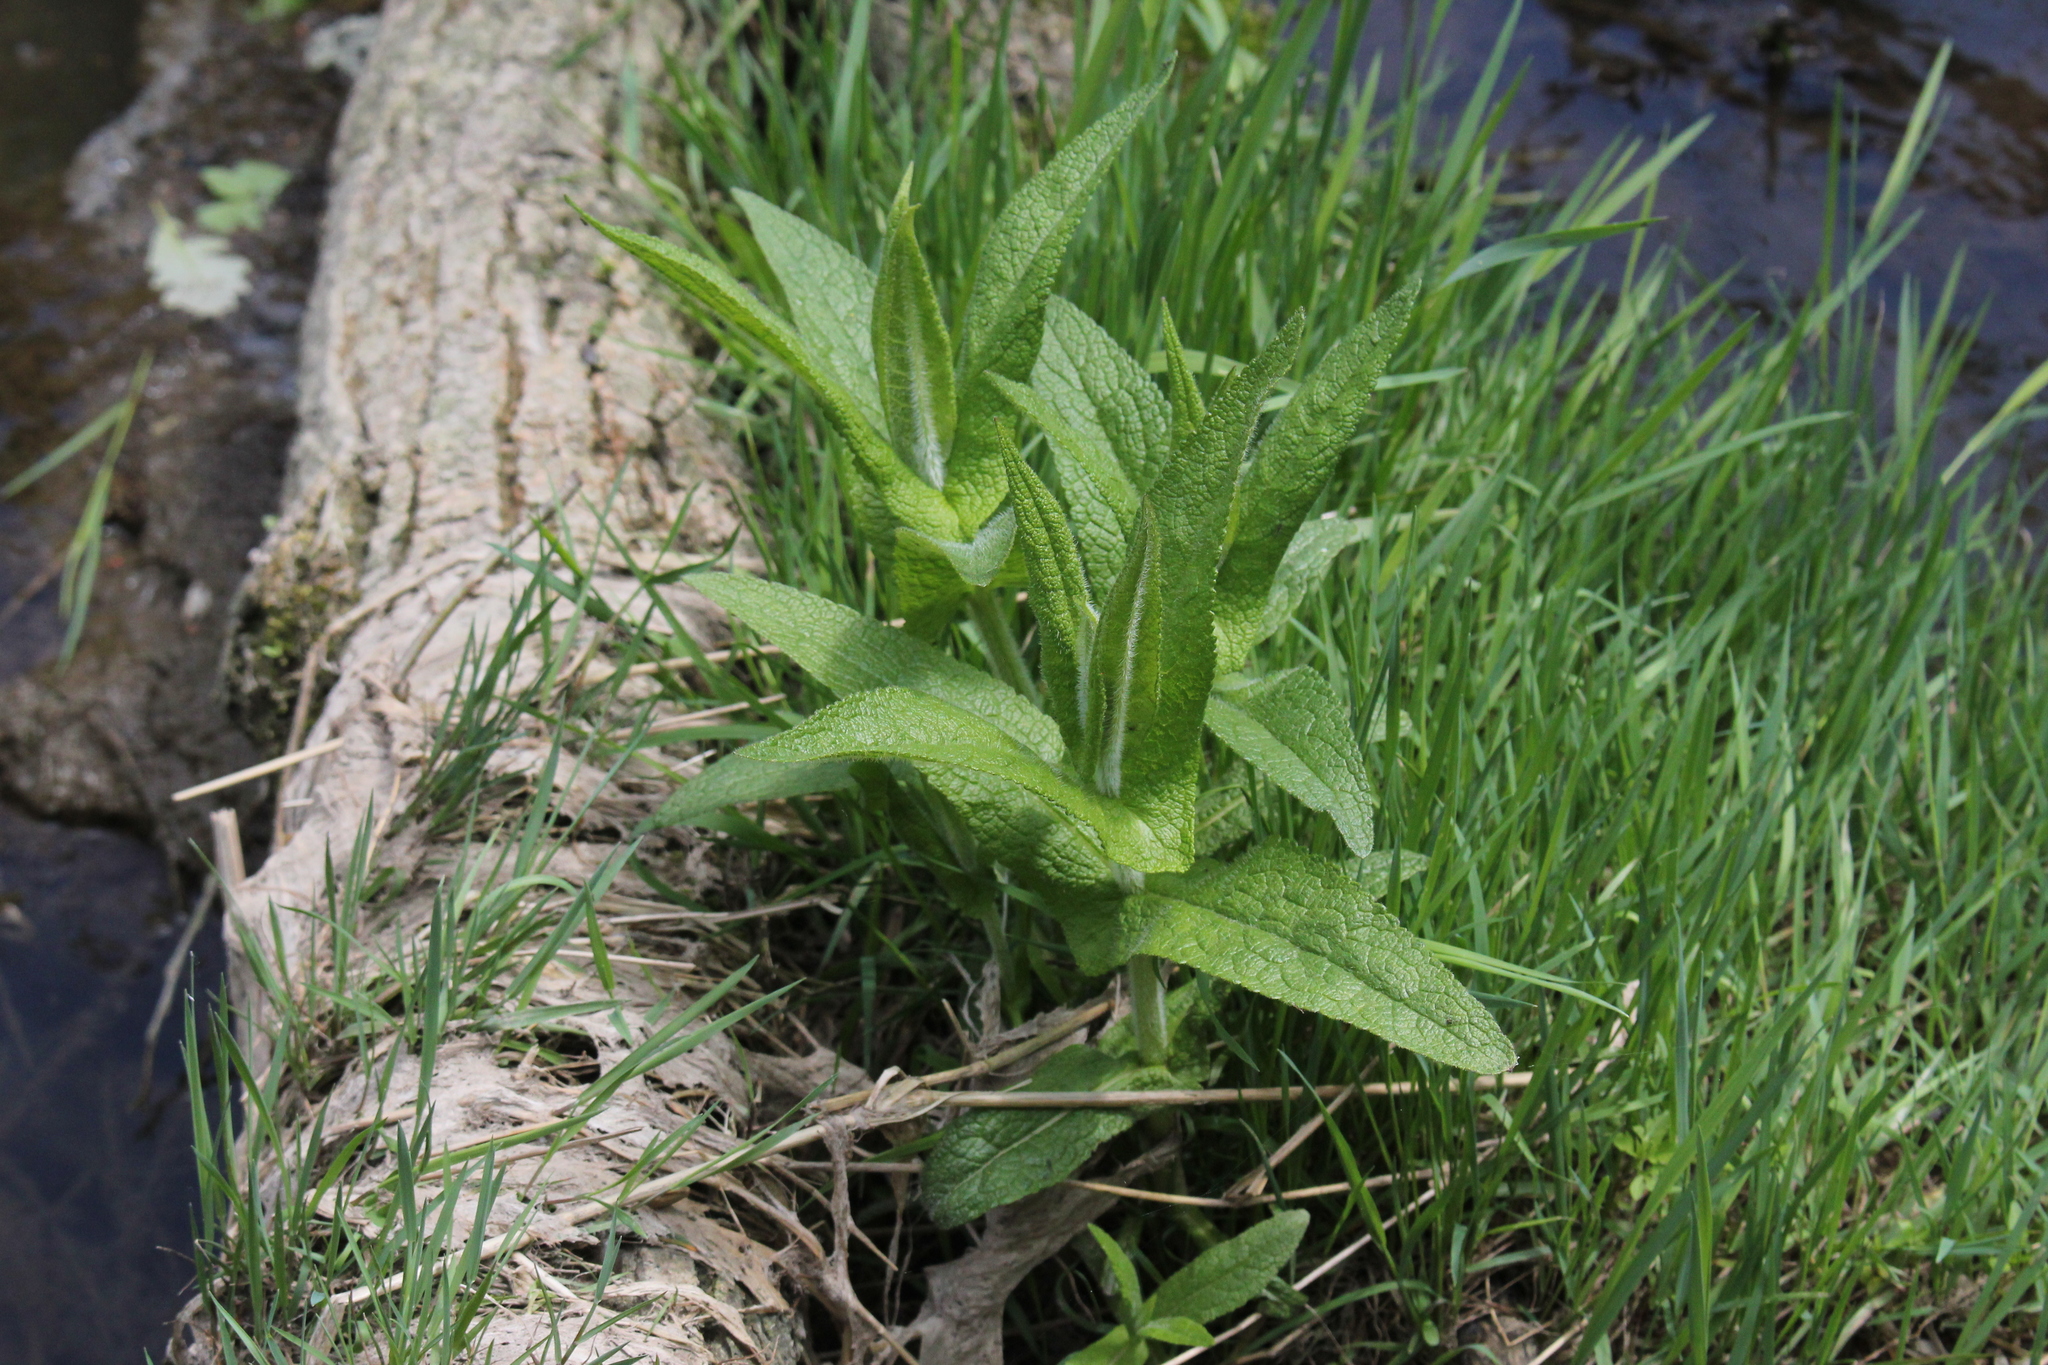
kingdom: Plantae
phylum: Tracheophyta
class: Magnoliopsida
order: Asterales
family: Asteraceae
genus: Eupatorium
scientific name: Eupatorium perfoliatum
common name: Boneset
